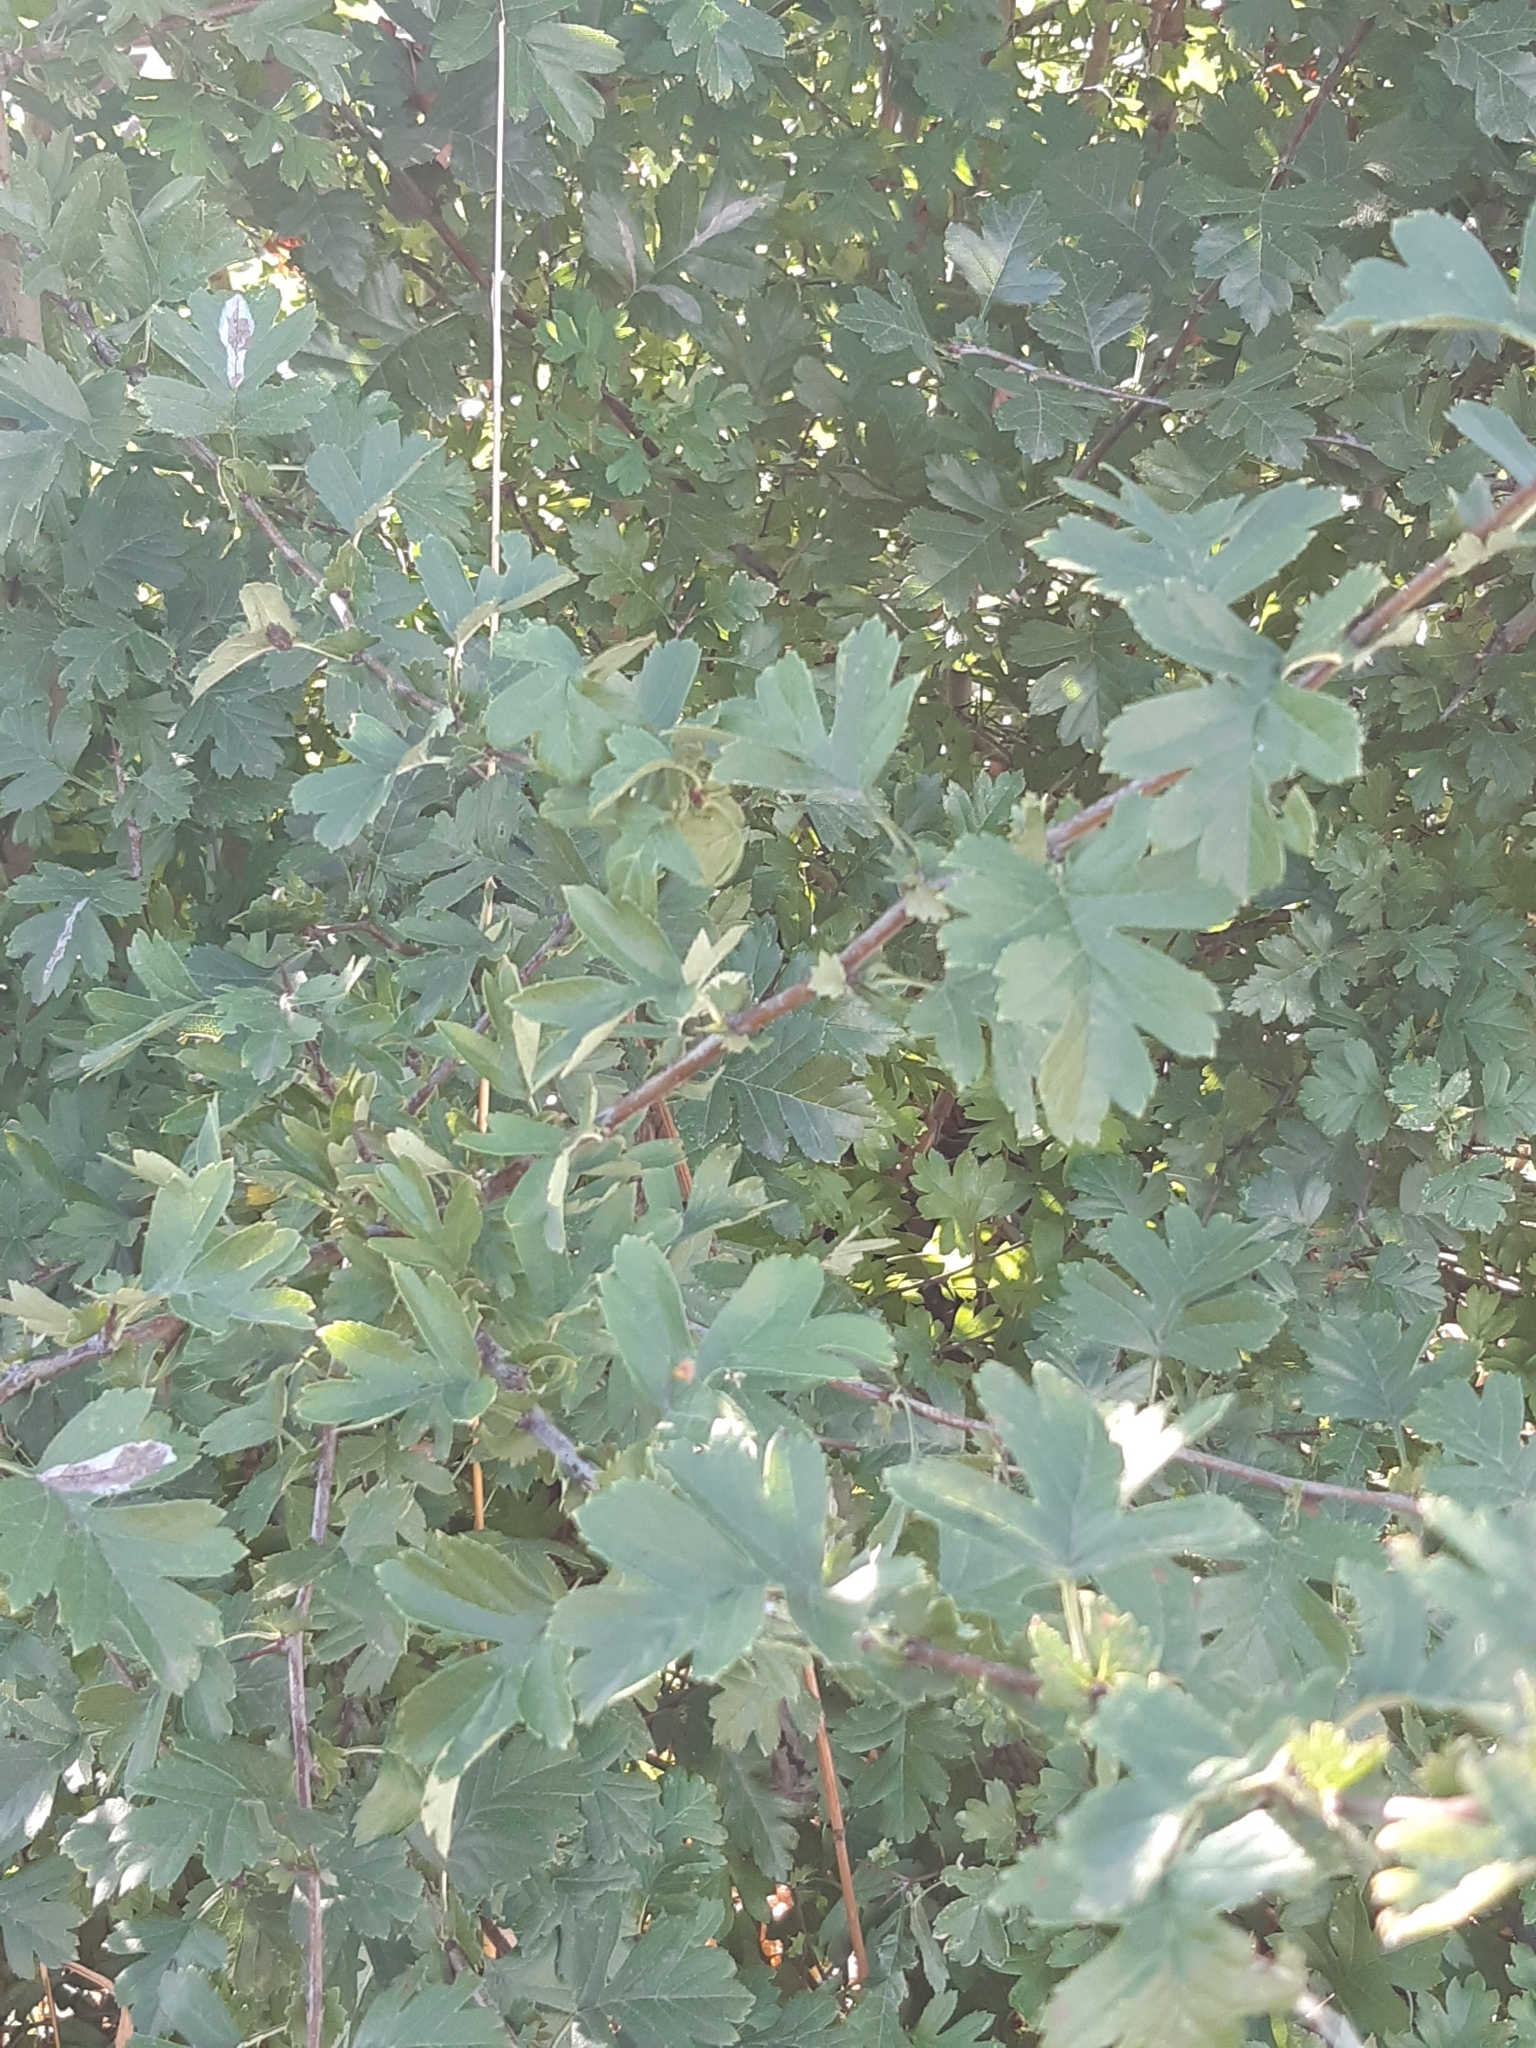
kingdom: Plantae
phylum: Tracheophyta
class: Magnoliopsida
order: Rosales
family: Rosaceae
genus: Crataegus
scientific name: Crataegus monogyna
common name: Hawthorn
